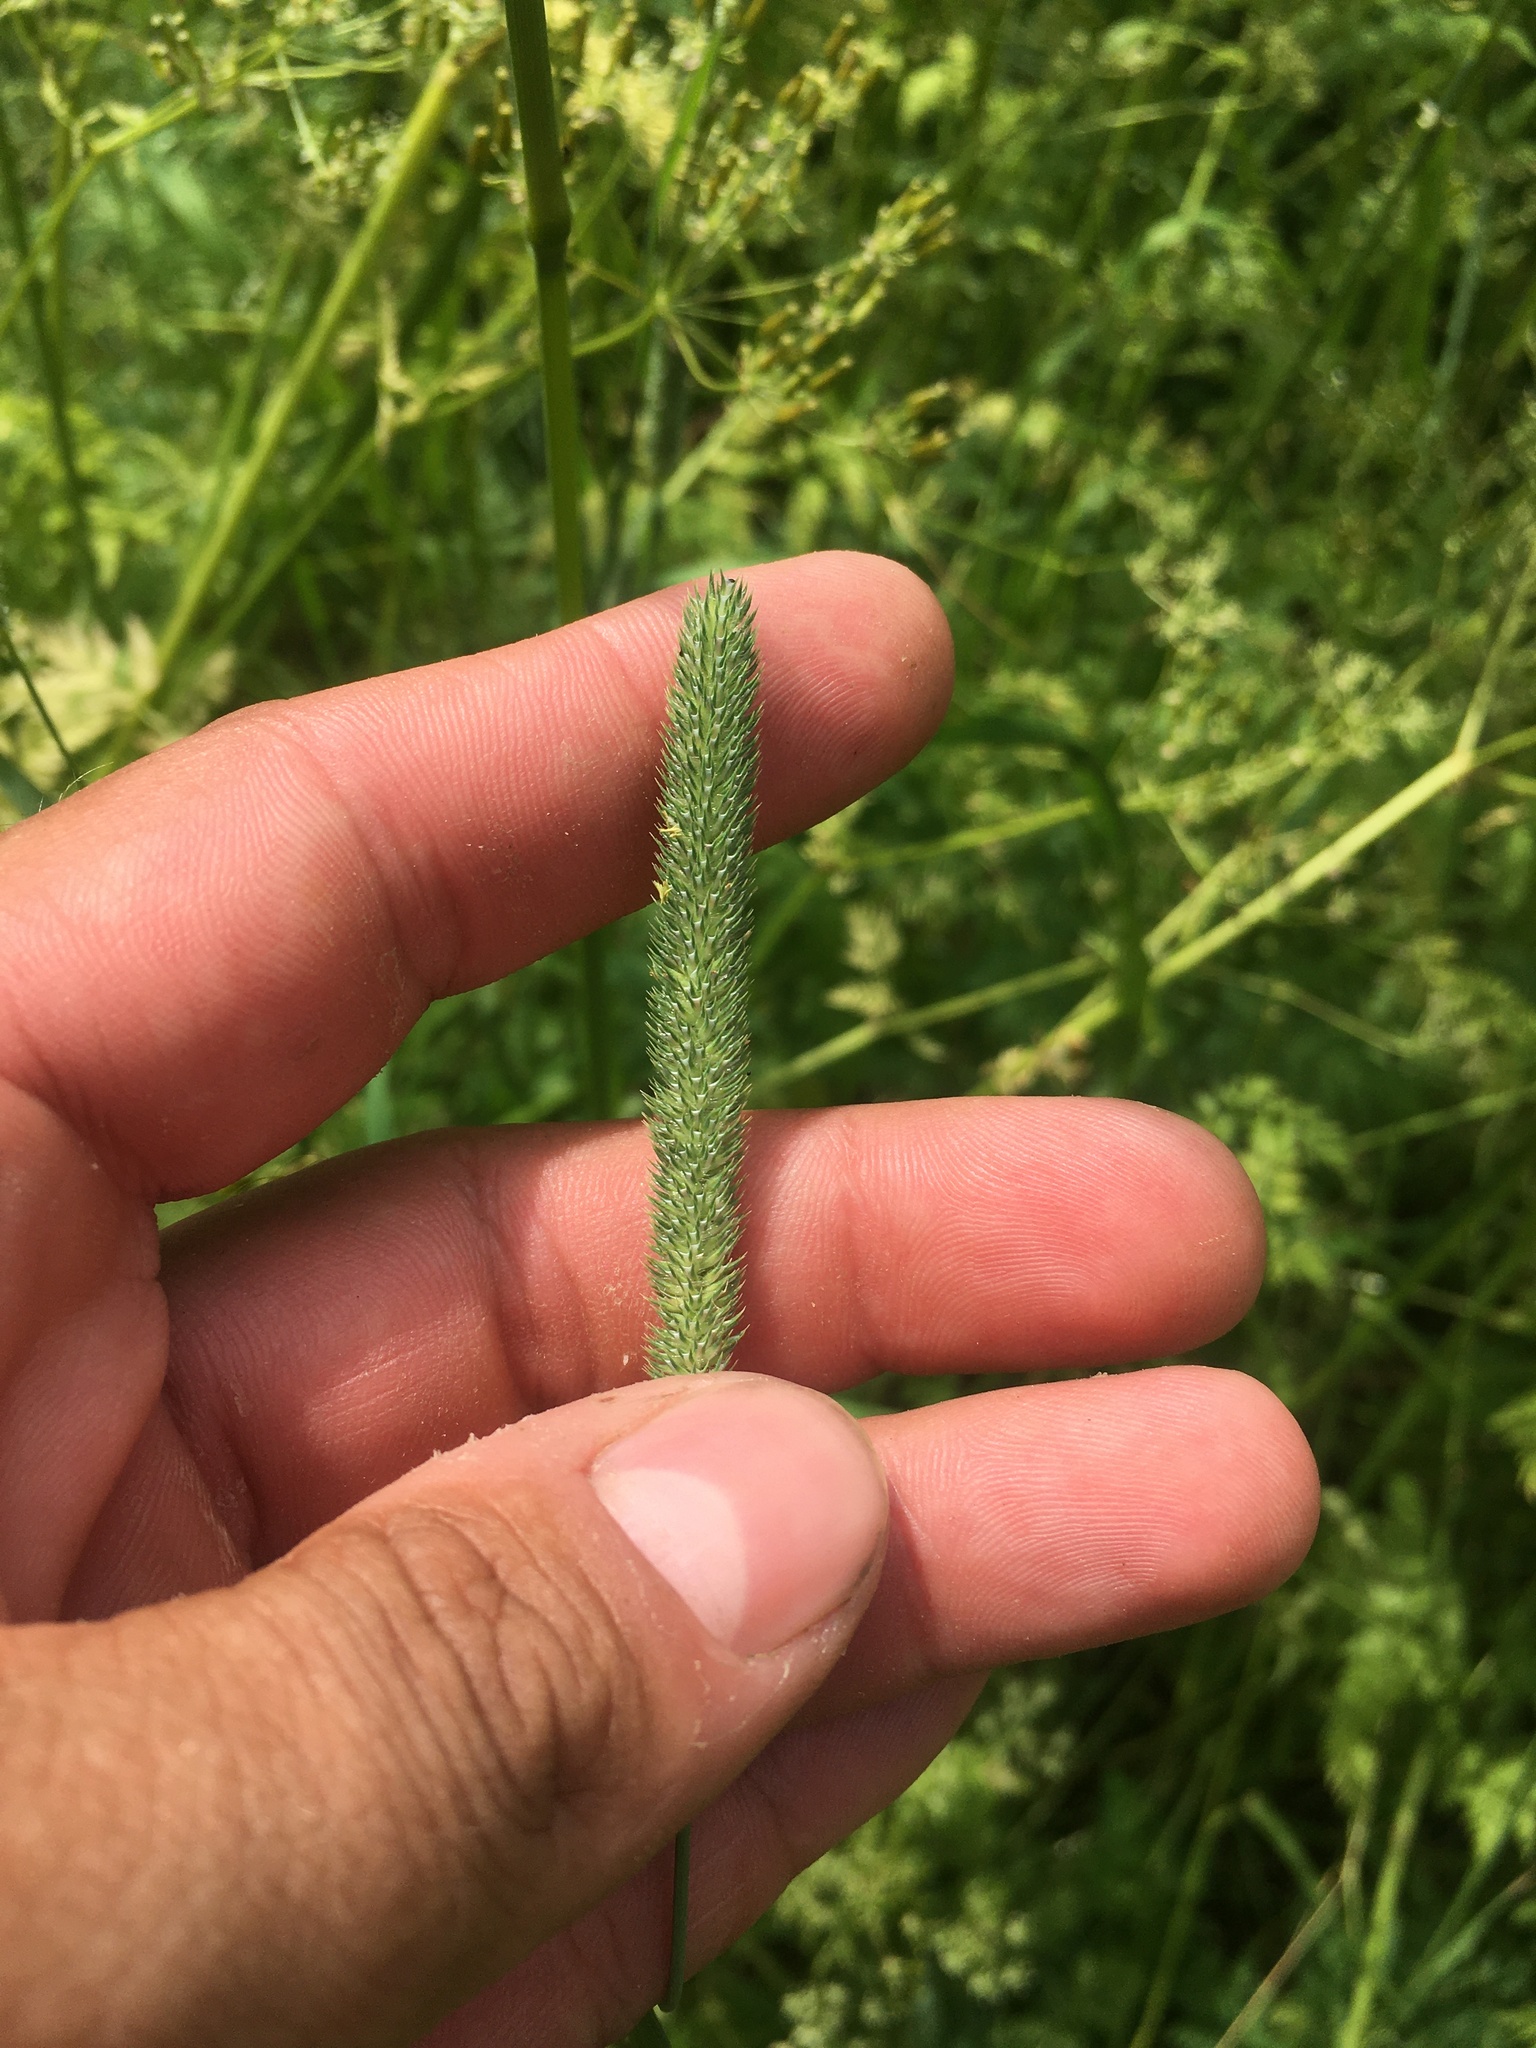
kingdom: Plantae
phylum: Tracheophyta
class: Liliopsida
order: Poales
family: Poaceae
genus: Phleum
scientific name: Phleum pratense
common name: Timothy grass
